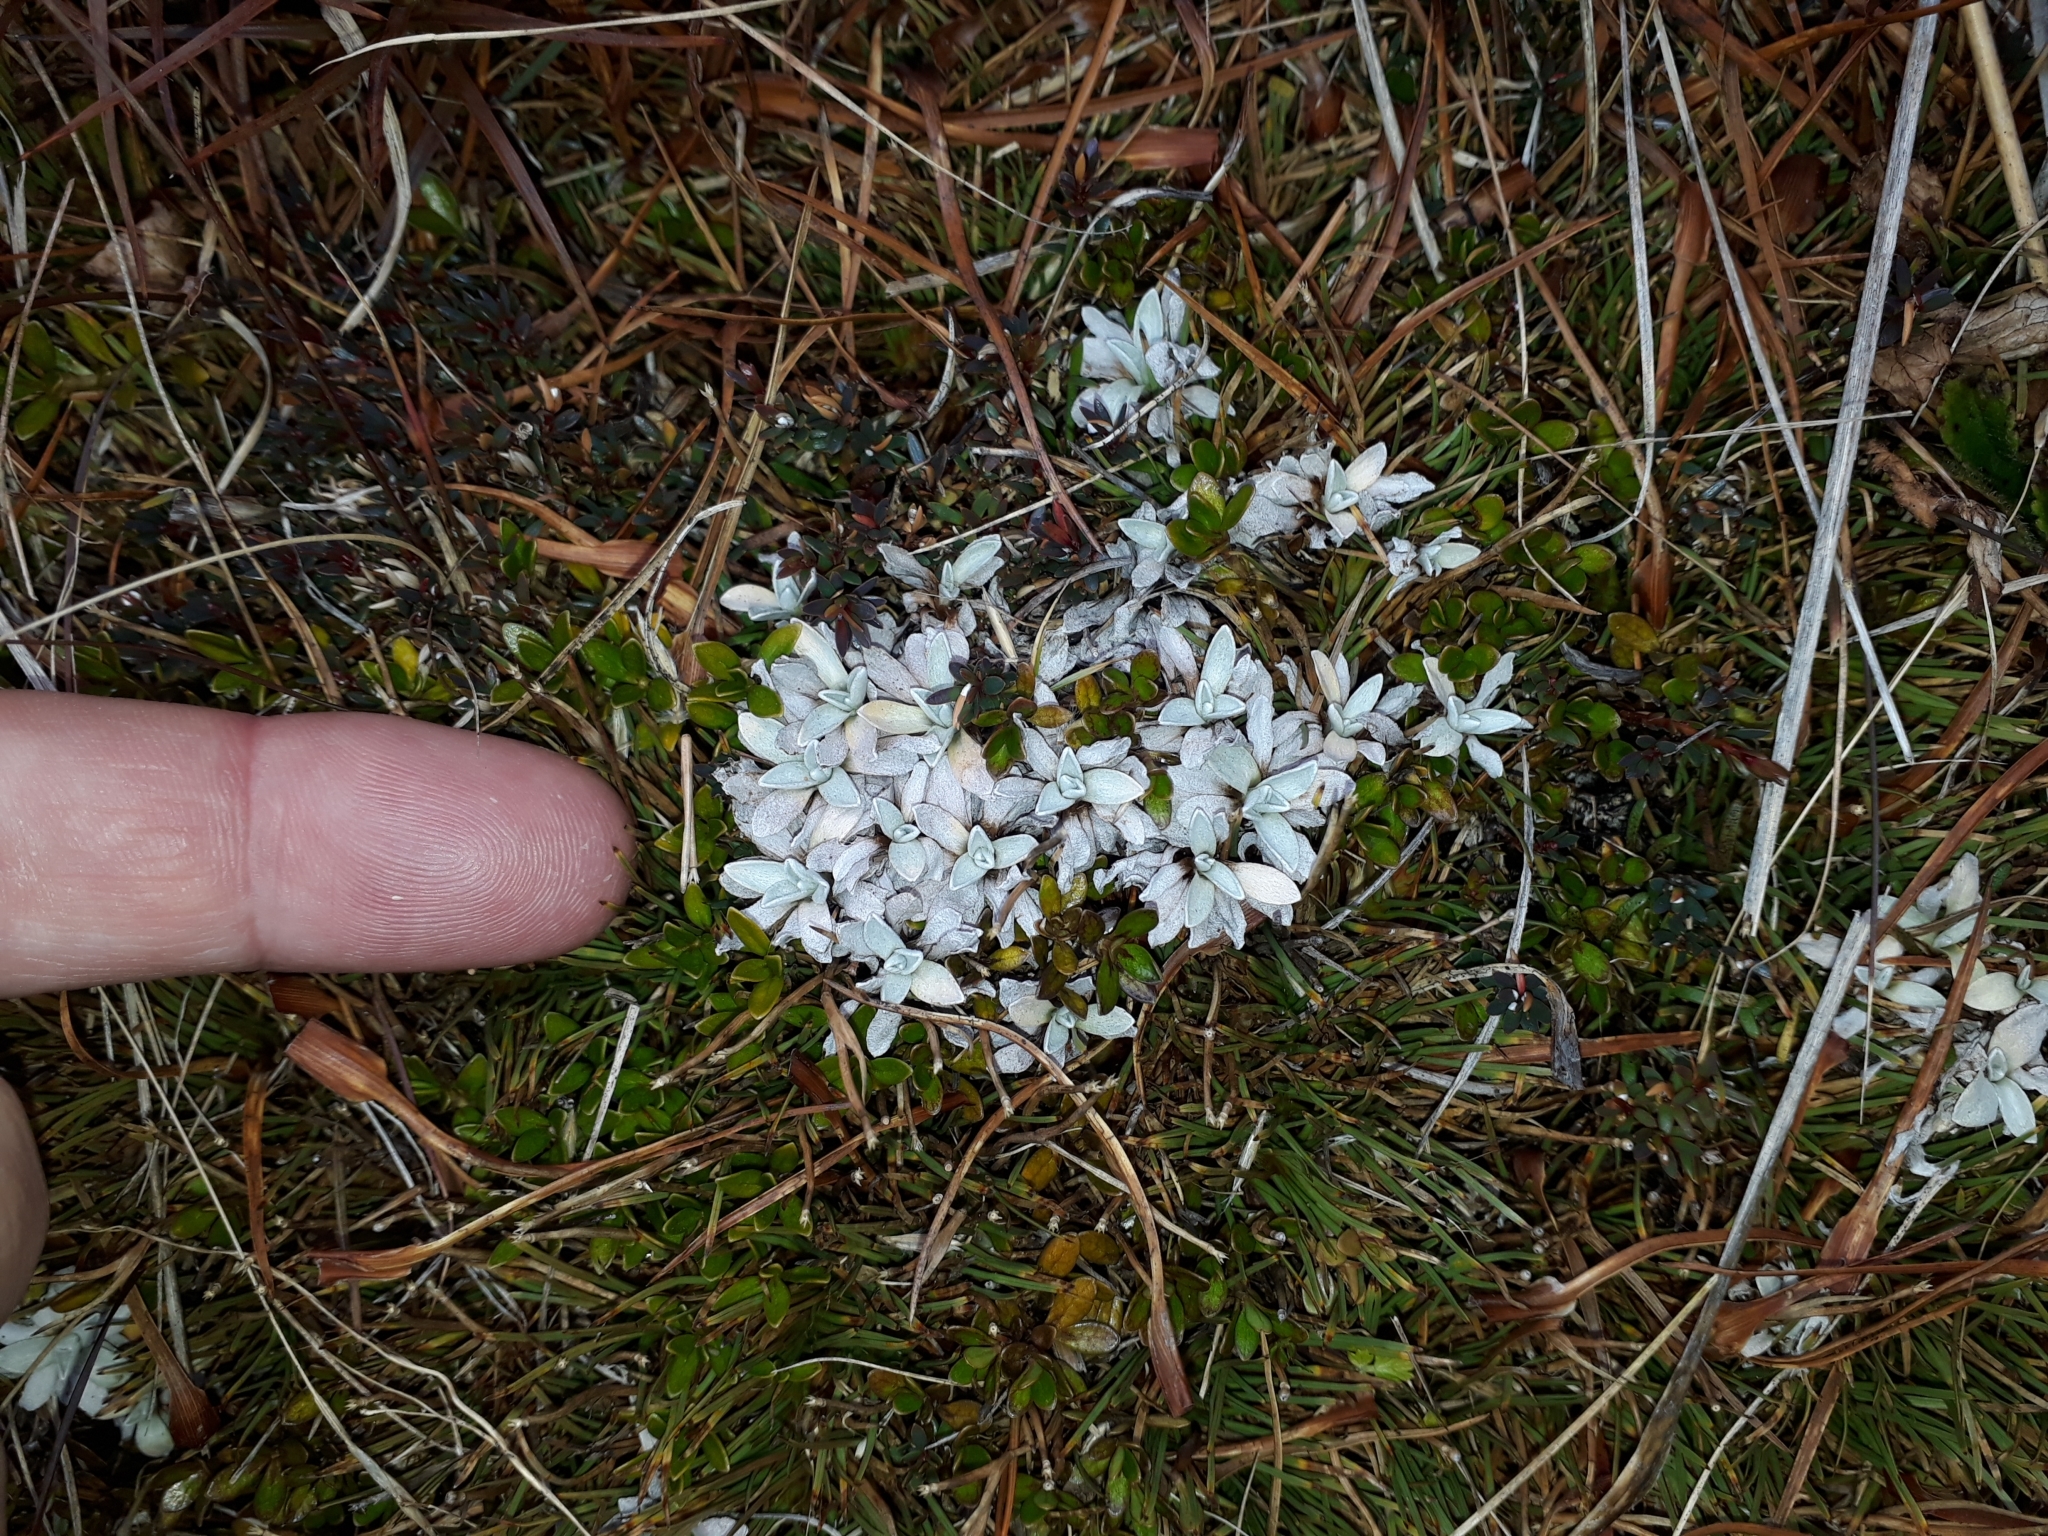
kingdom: Plantae
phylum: Tracheophyta
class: Magnoliopsida
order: Asterales
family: Asteraceae
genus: Argyrotegium
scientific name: Argyrotegium mackayi
